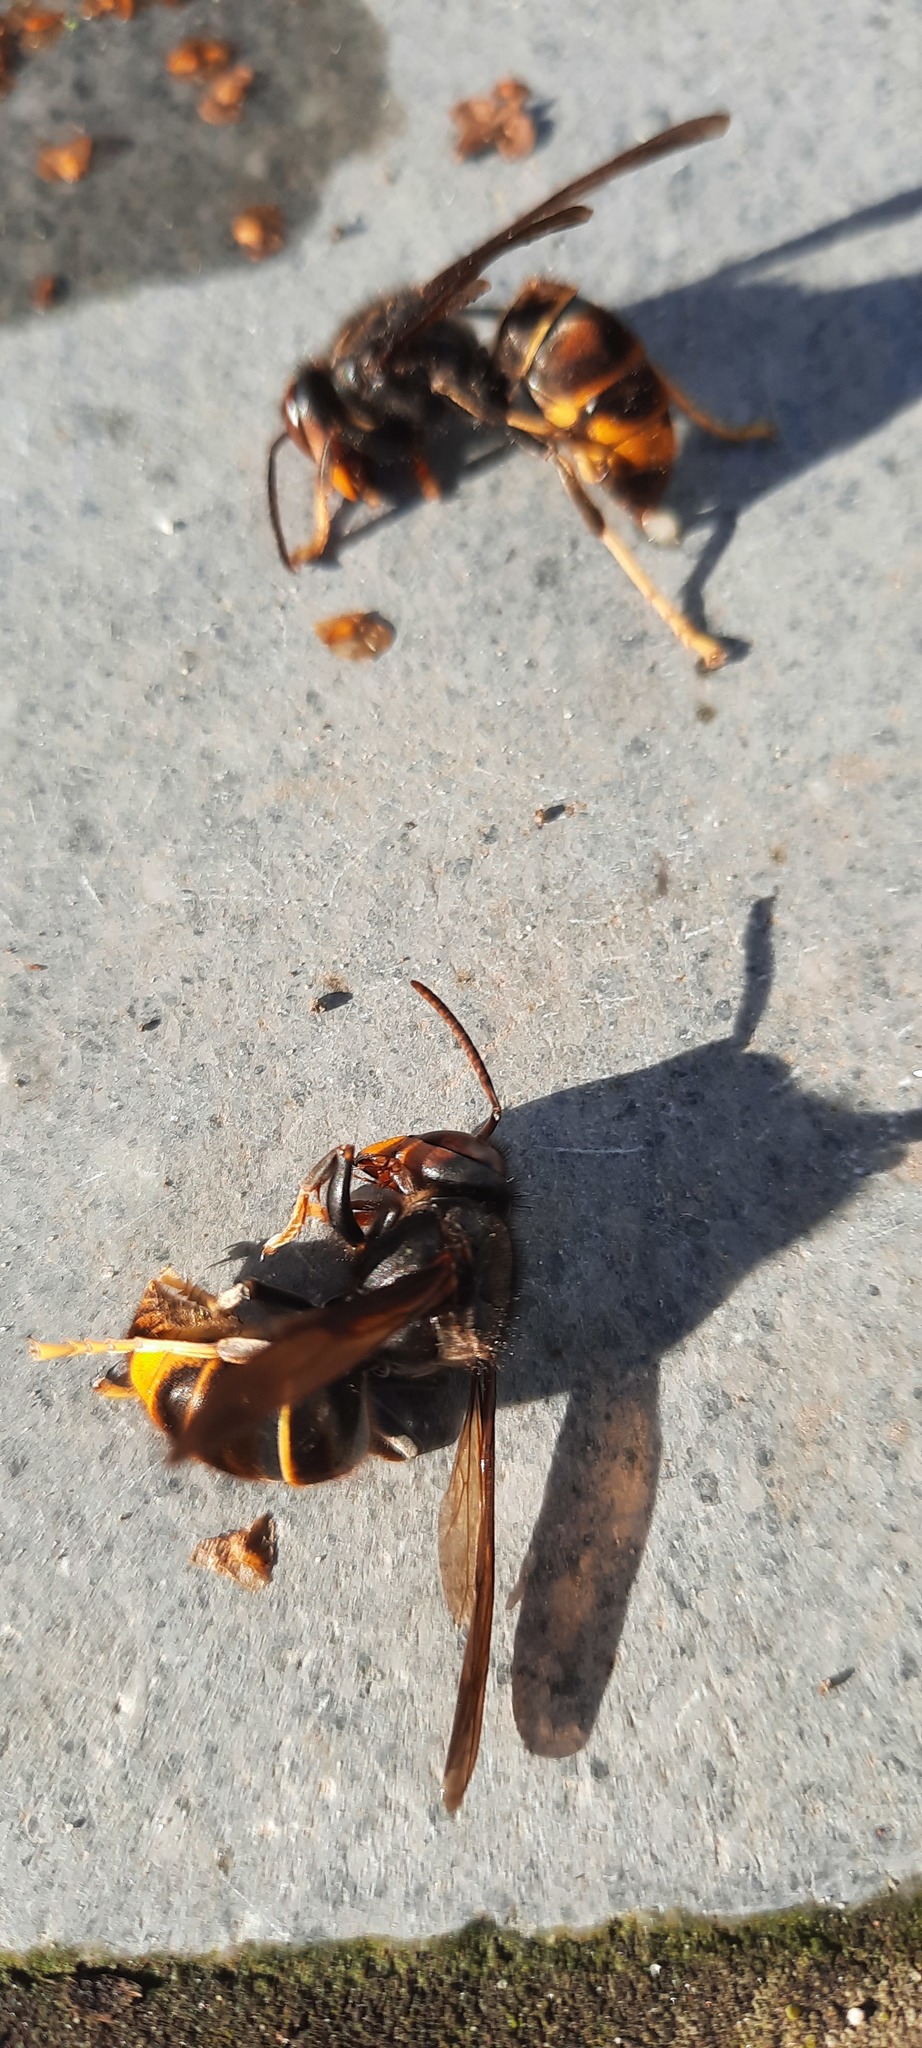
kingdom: Animalia
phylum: Arthropoda
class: Insecta
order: Hymenoptera
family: Vespidae
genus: Vespa
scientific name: Vespa velutina
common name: Asian hornet
